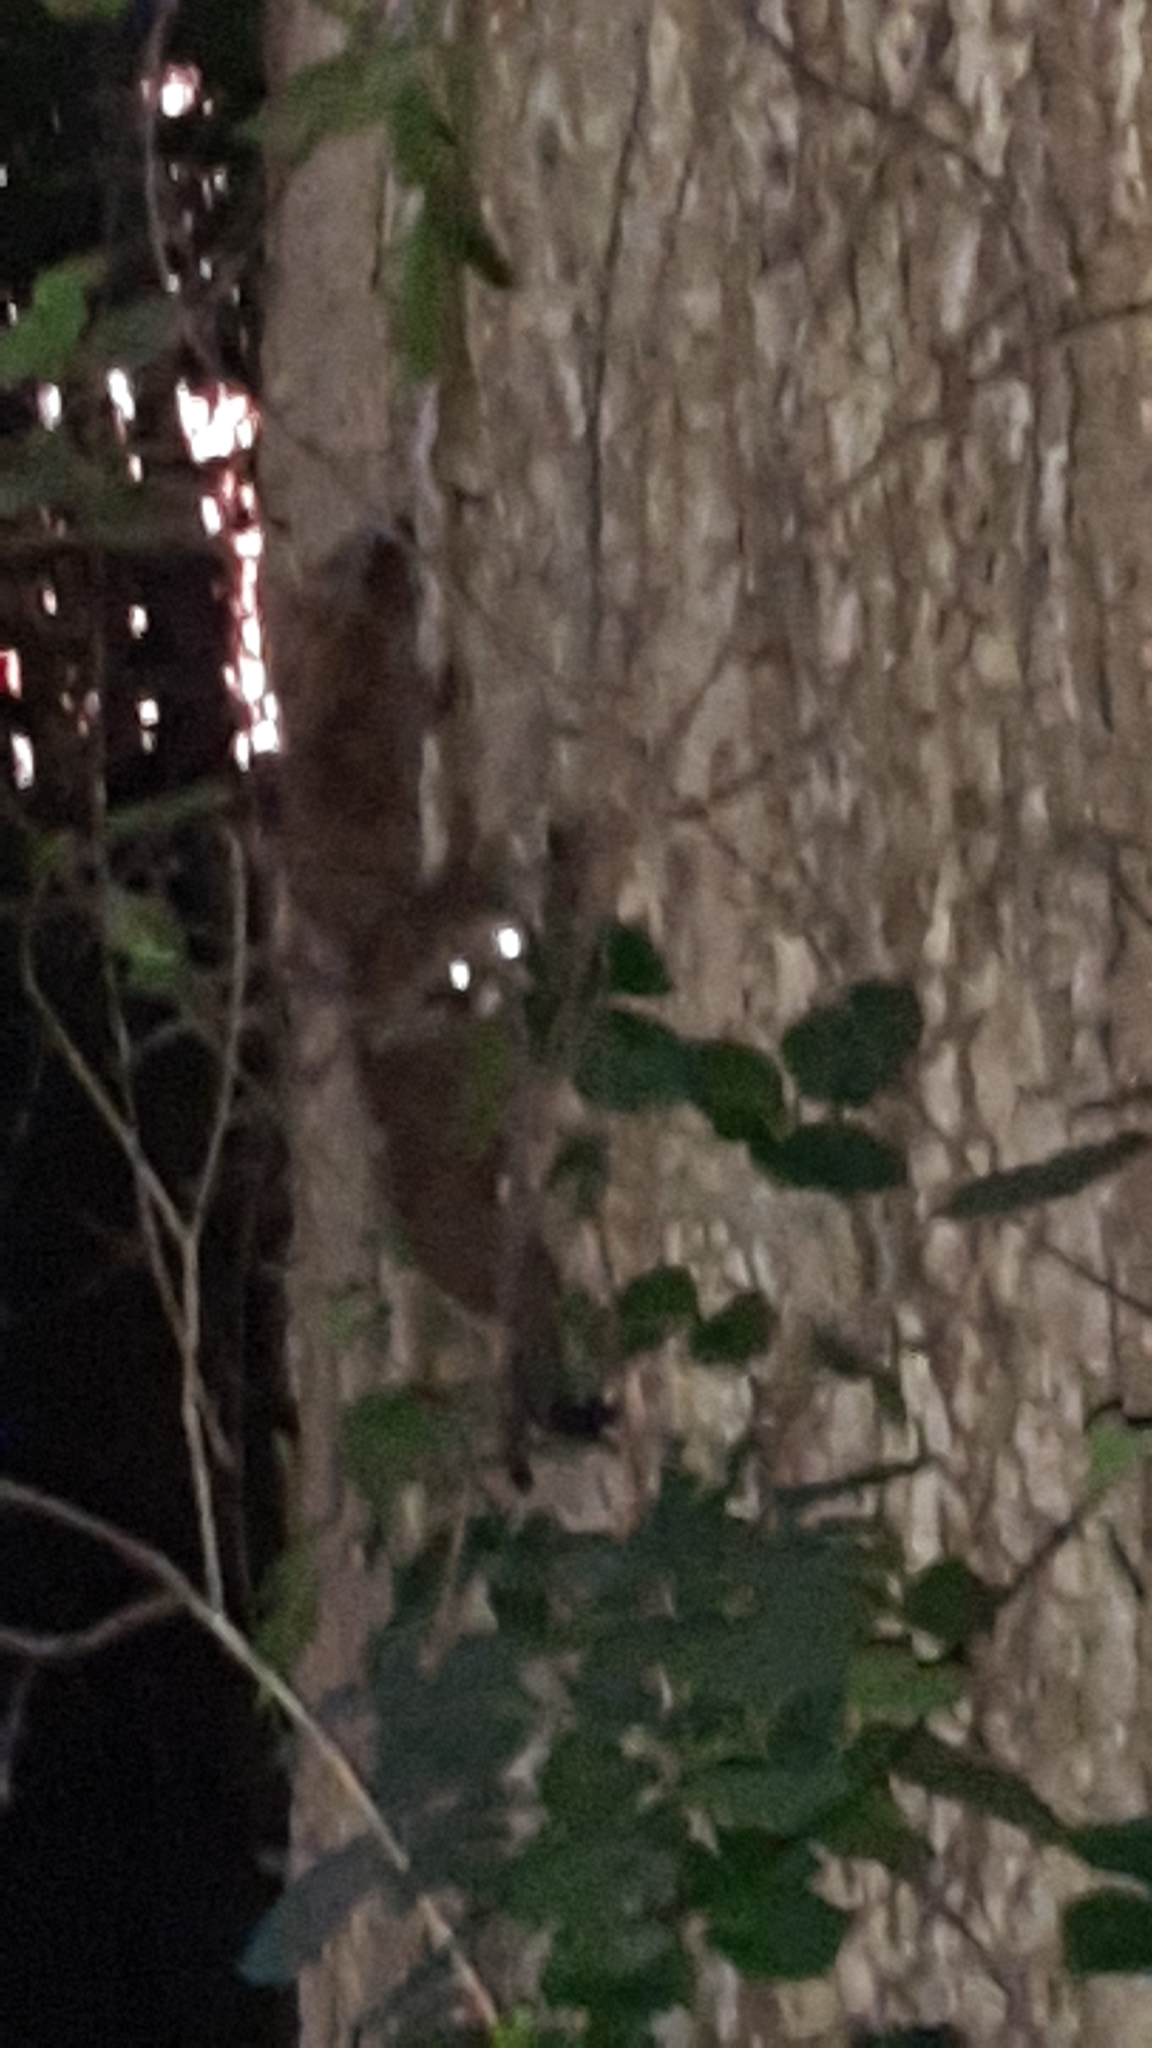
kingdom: Animalia
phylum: Chordata
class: Mammalia
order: Carnivora
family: Procyonidae
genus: Procyon
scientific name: Procyon lotor
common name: Raccoon
